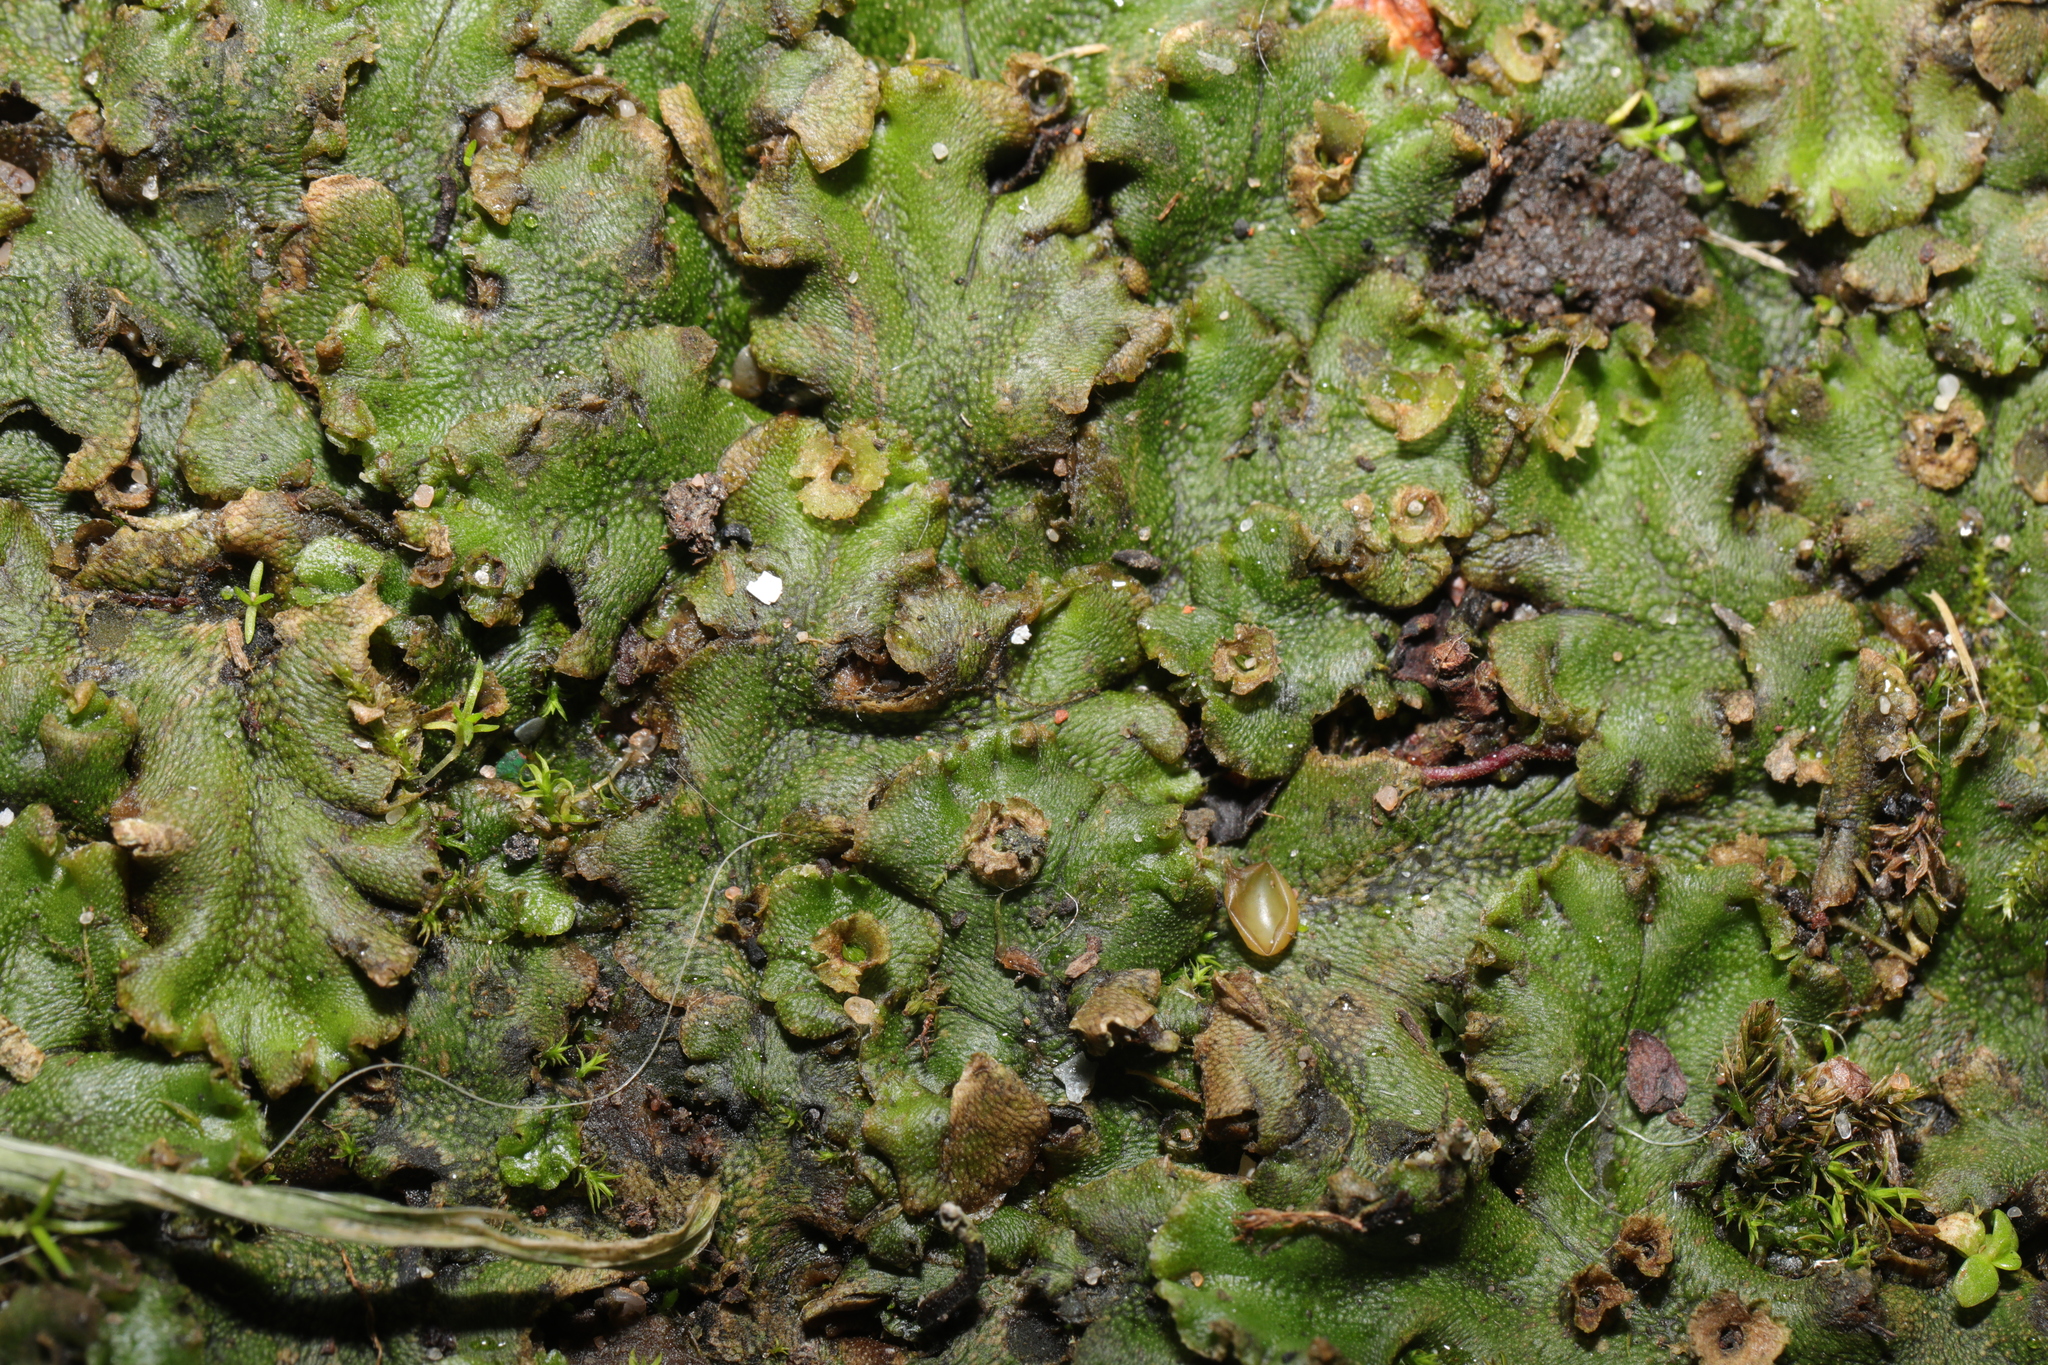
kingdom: Plantae
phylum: Marchantiophyta
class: Marchantiopsida
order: Marchantiales
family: Marchantiaceae
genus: Marchantia
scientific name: Marchantia polymorpha
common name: Common liverwort
